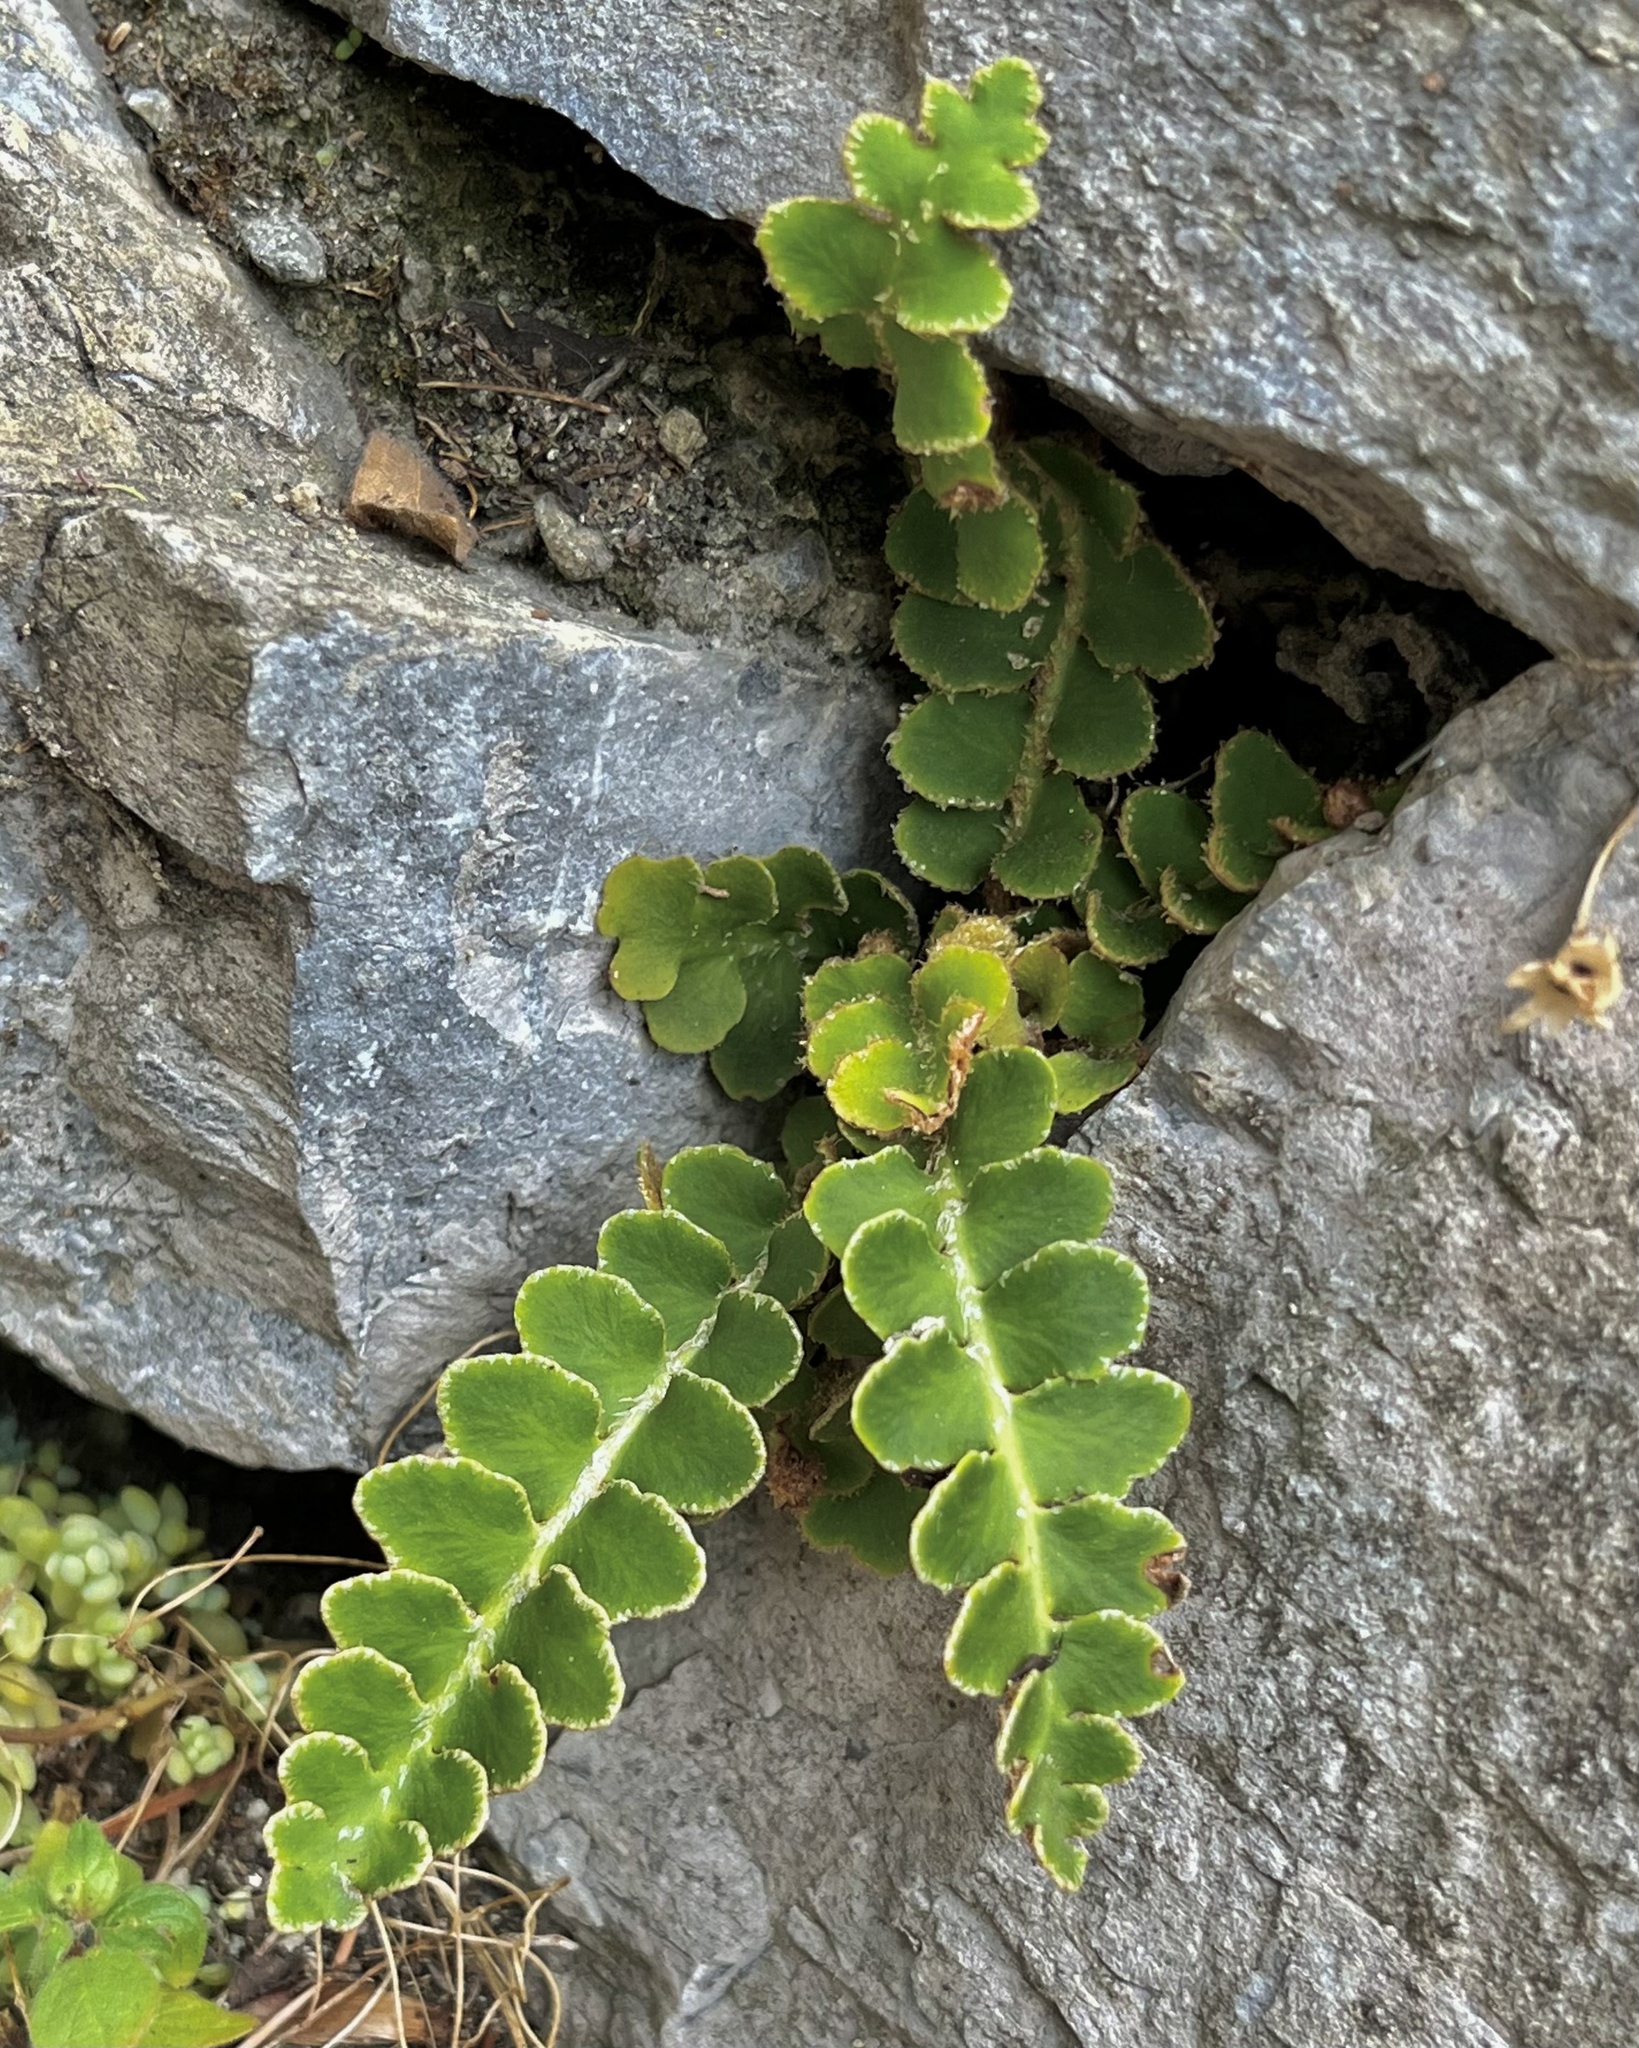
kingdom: Plantae
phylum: Tracheophyta
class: Polypodiopsida
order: Polypodiales
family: Aspleniaceae
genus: Asplenium
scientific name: Asplenium ceterach
